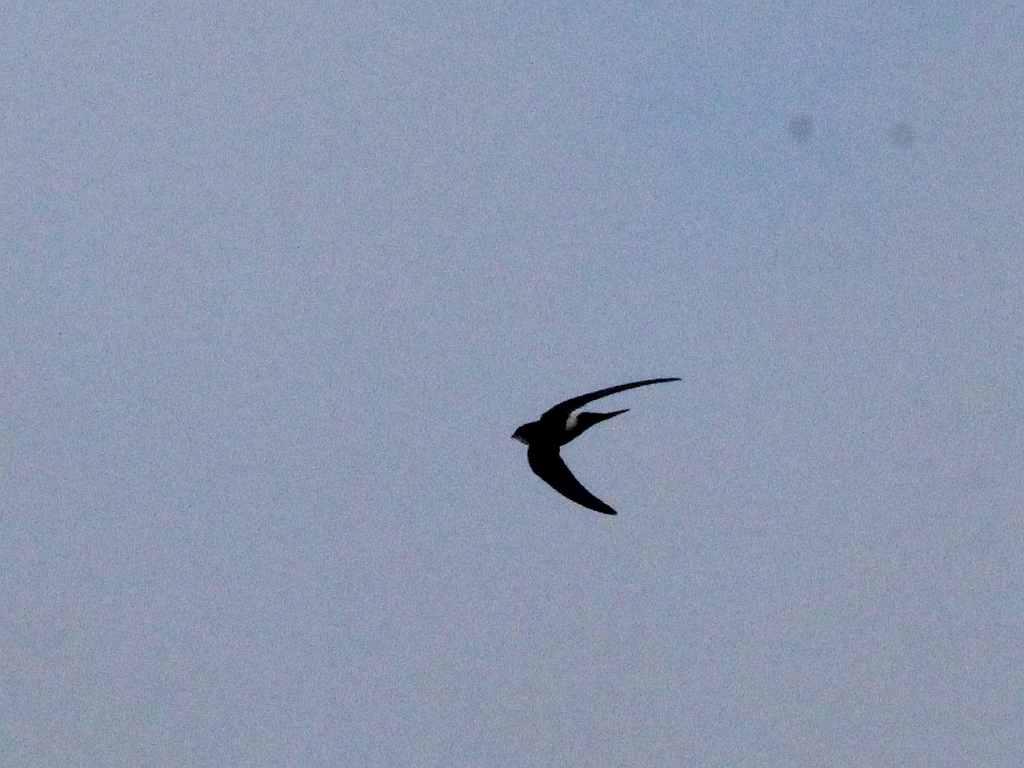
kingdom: Animalia
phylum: Chordata
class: Aves
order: Apodiformes
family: Apodidae
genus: Apus
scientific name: Apus pacificus
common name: Pacific swift
